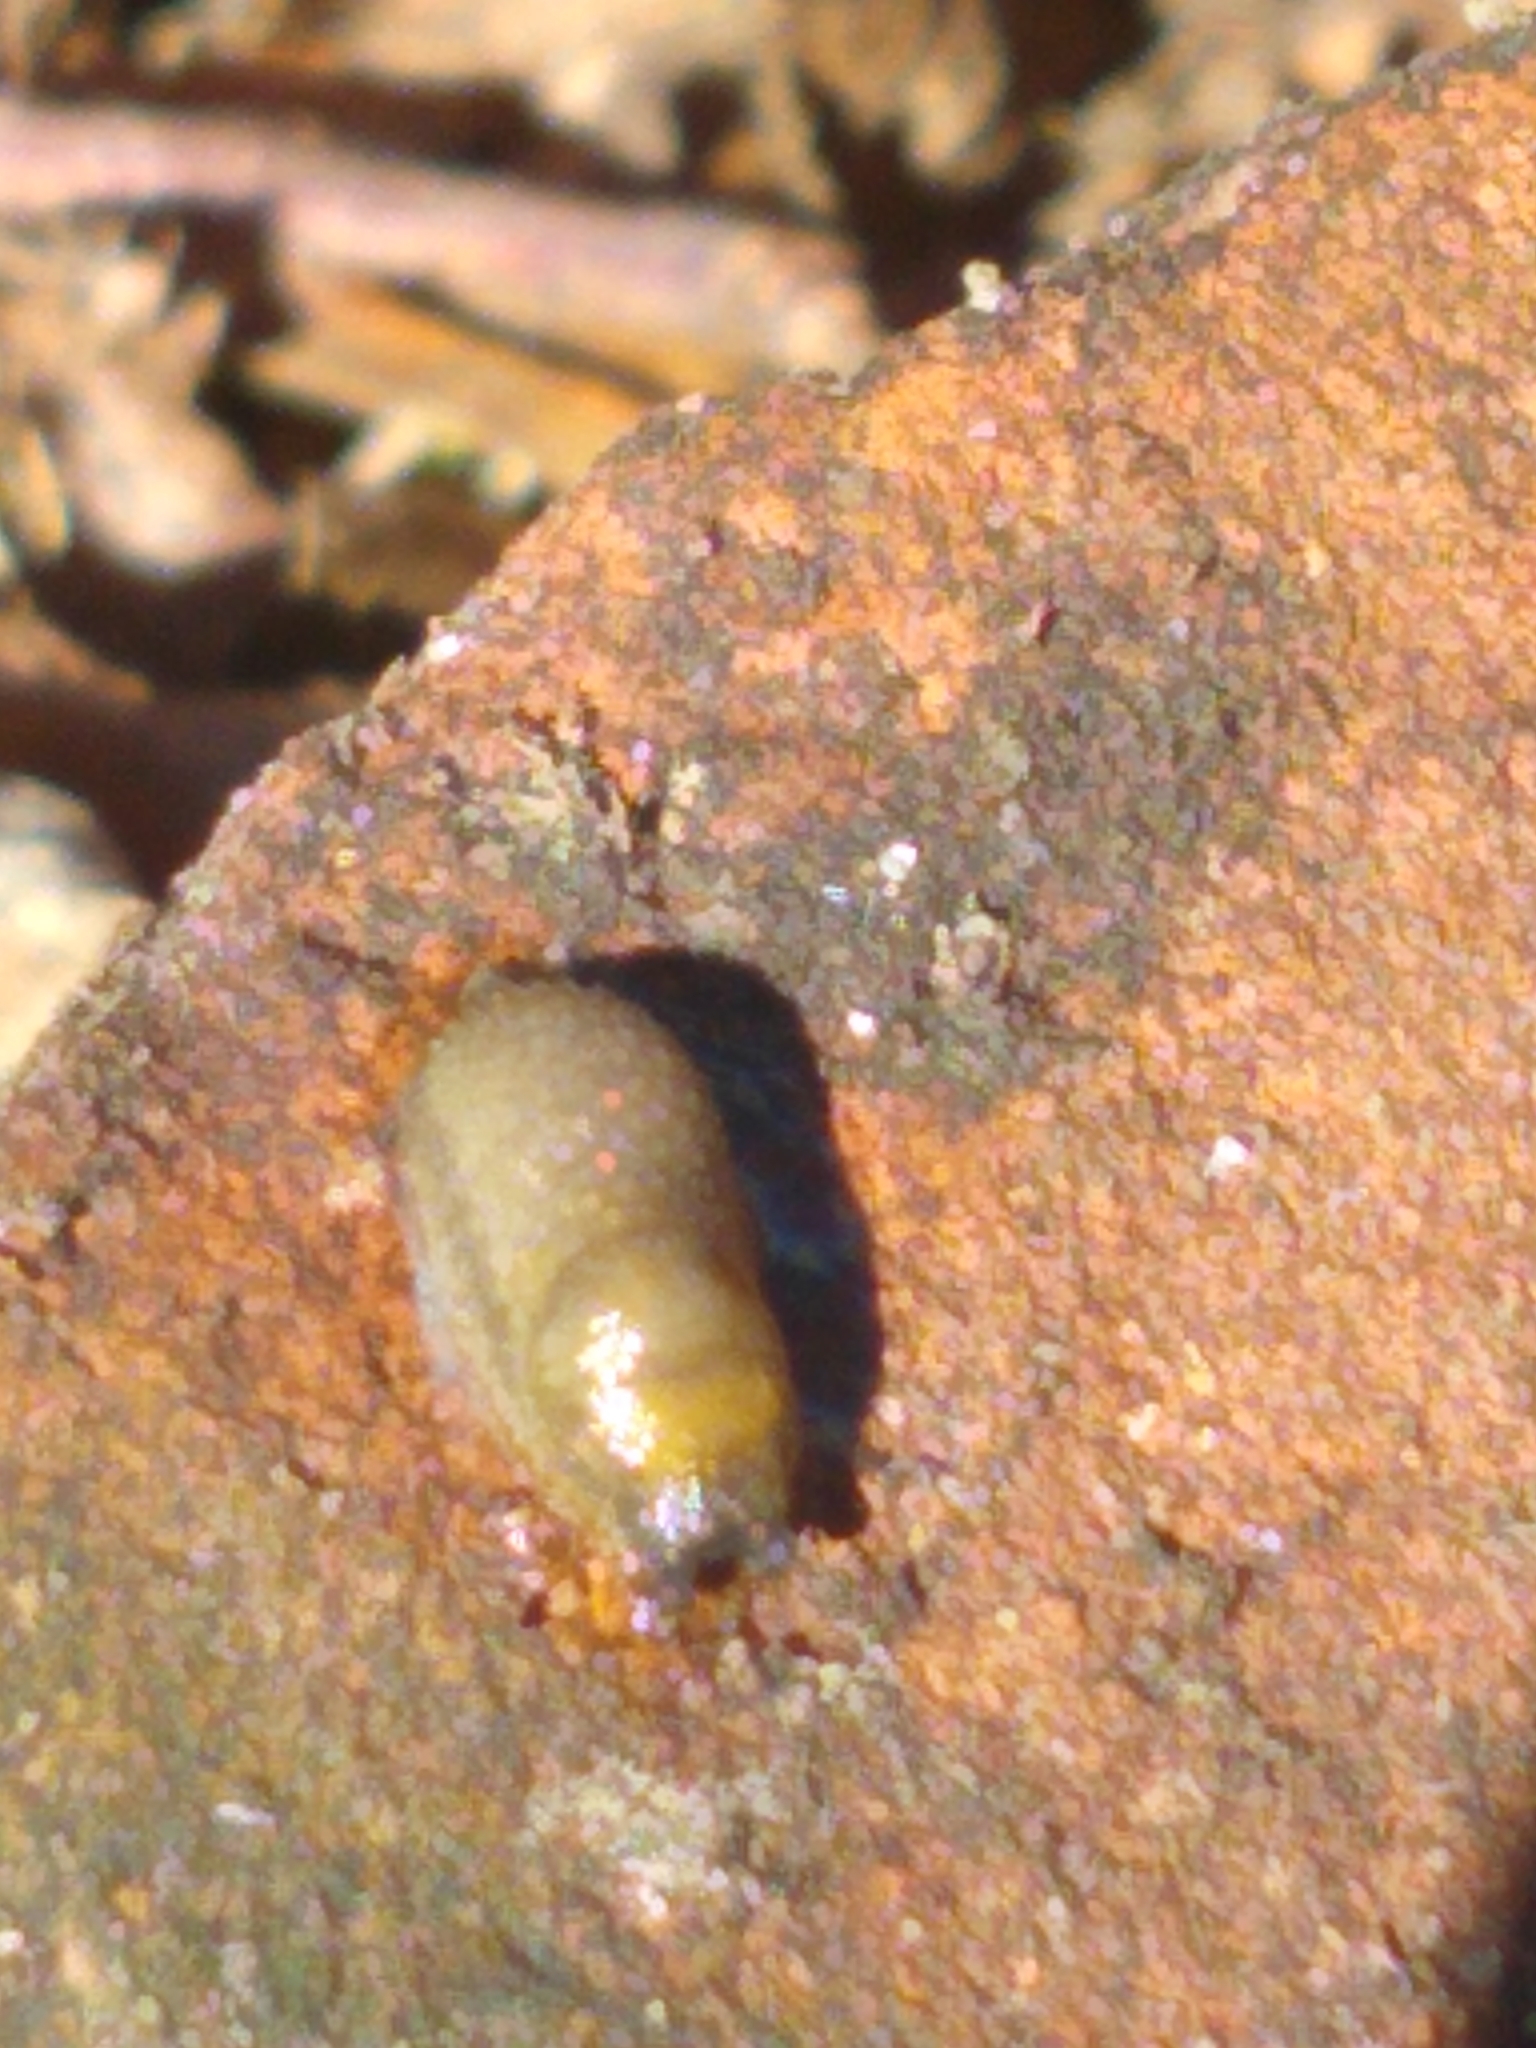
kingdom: Animalia
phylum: Mollusca
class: Gastropoda
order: Stylommatophora
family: Arionidae
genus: Arion
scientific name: Arion intermedius
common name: Hedgehog slug
